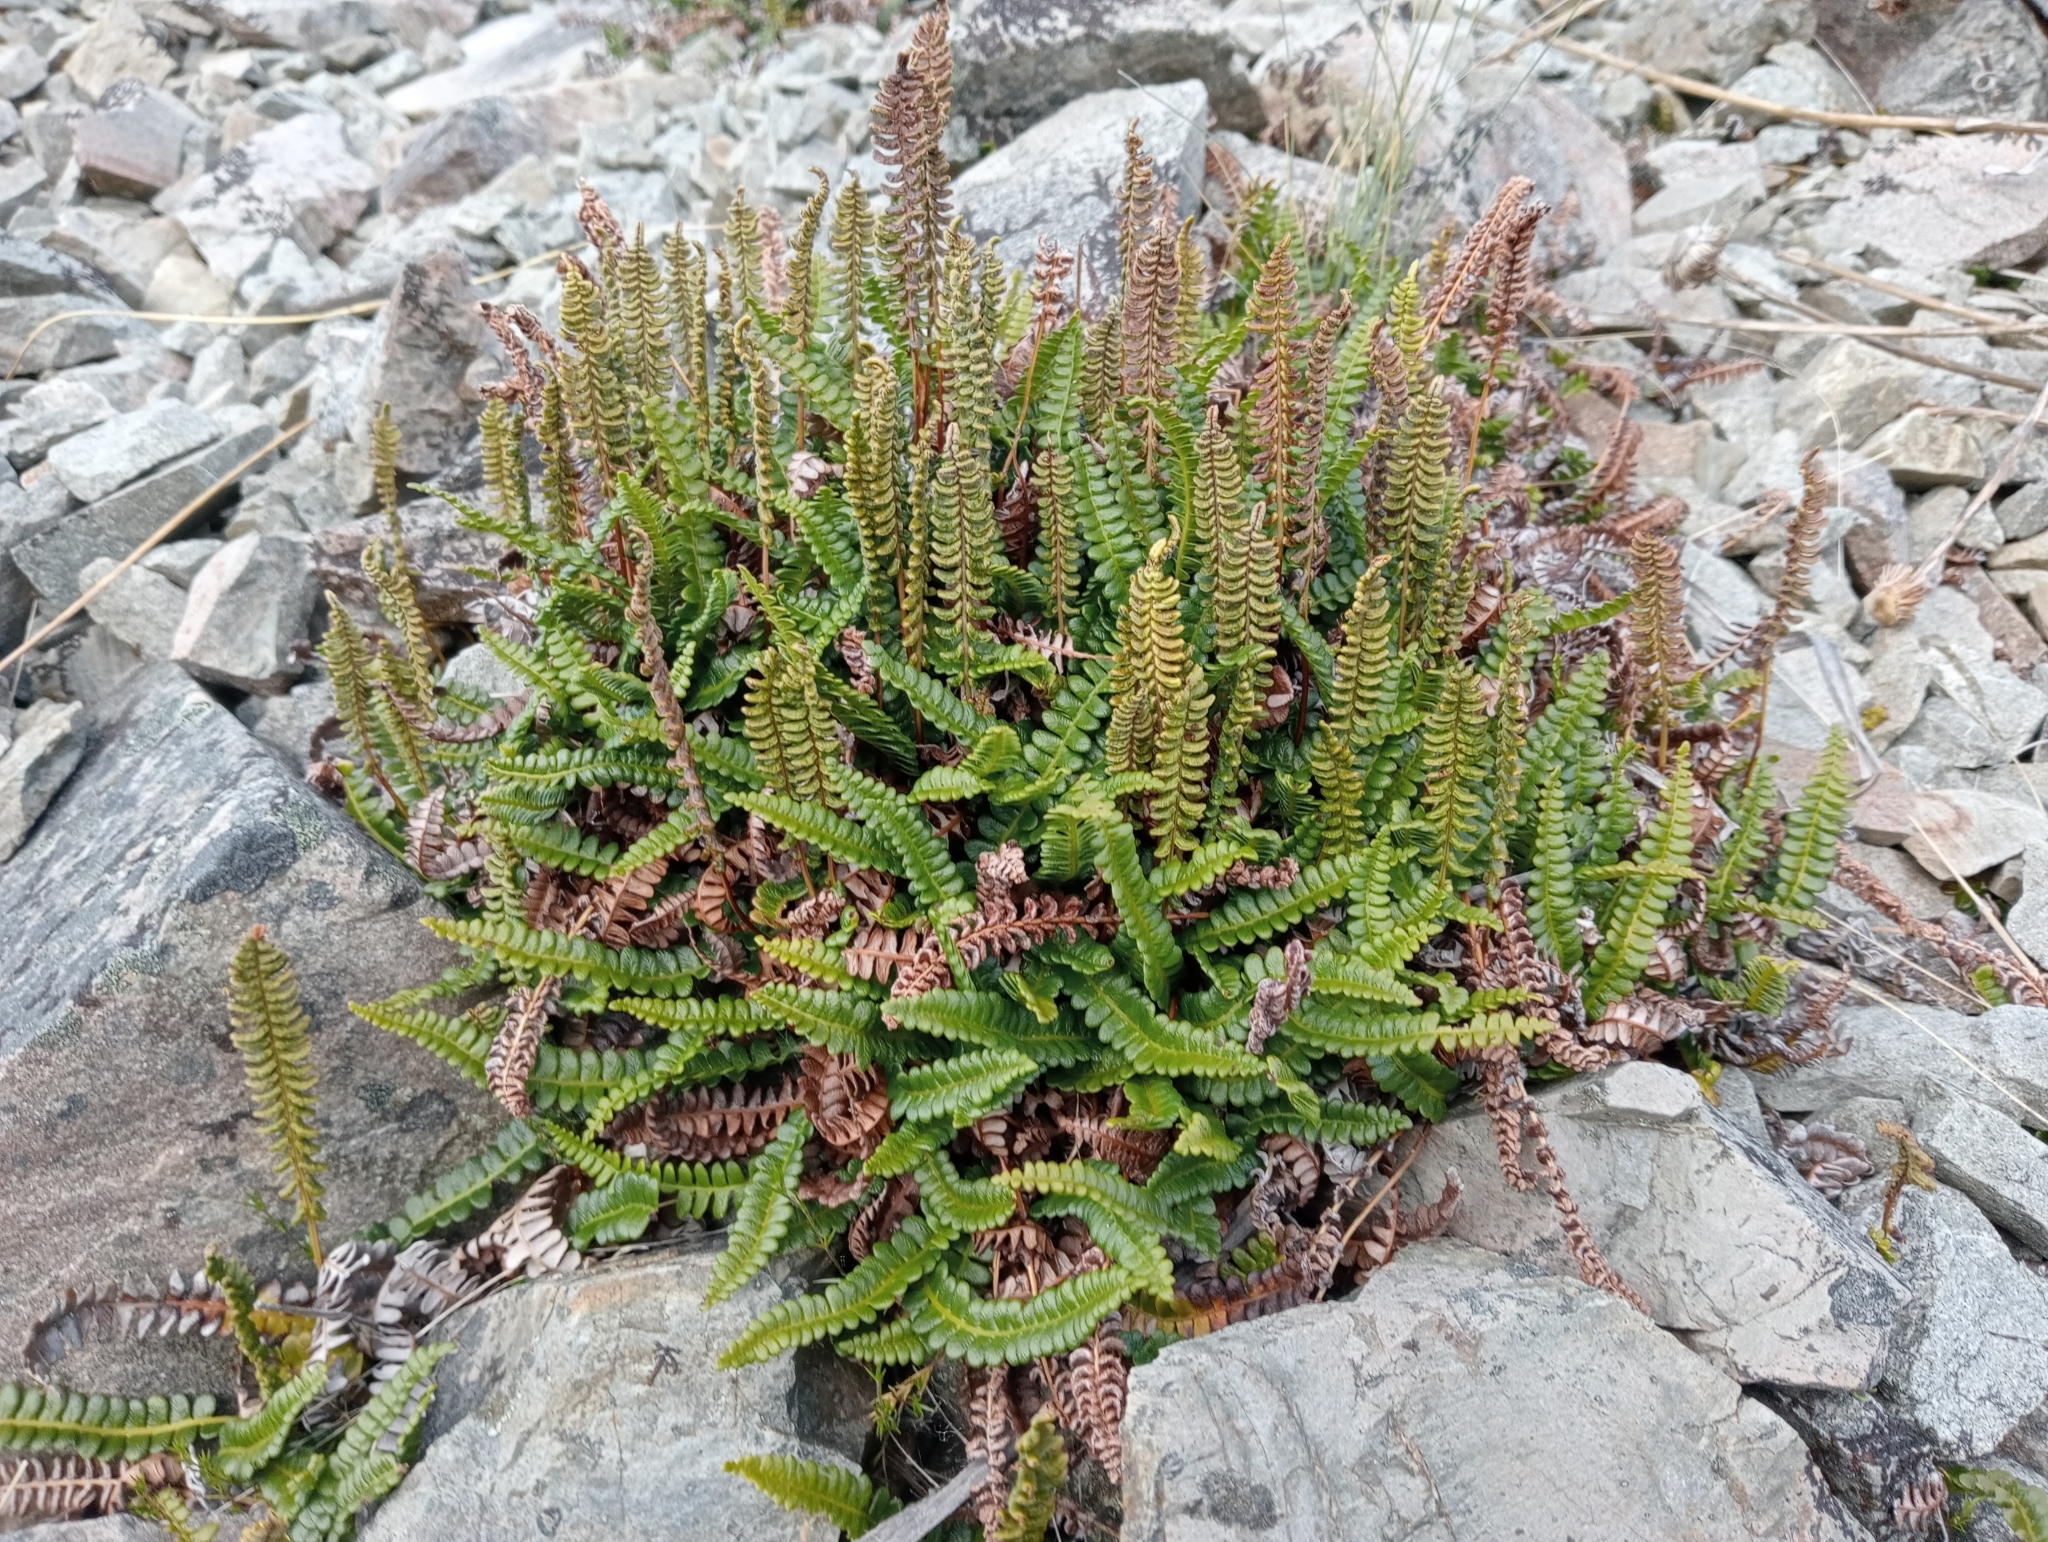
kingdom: Plantae
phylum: Tracheophyta
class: Polypodiopsida
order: Polypodiales
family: Blechnaceae
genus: Austroblechnum
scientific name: Austroblechnum penna-marina
